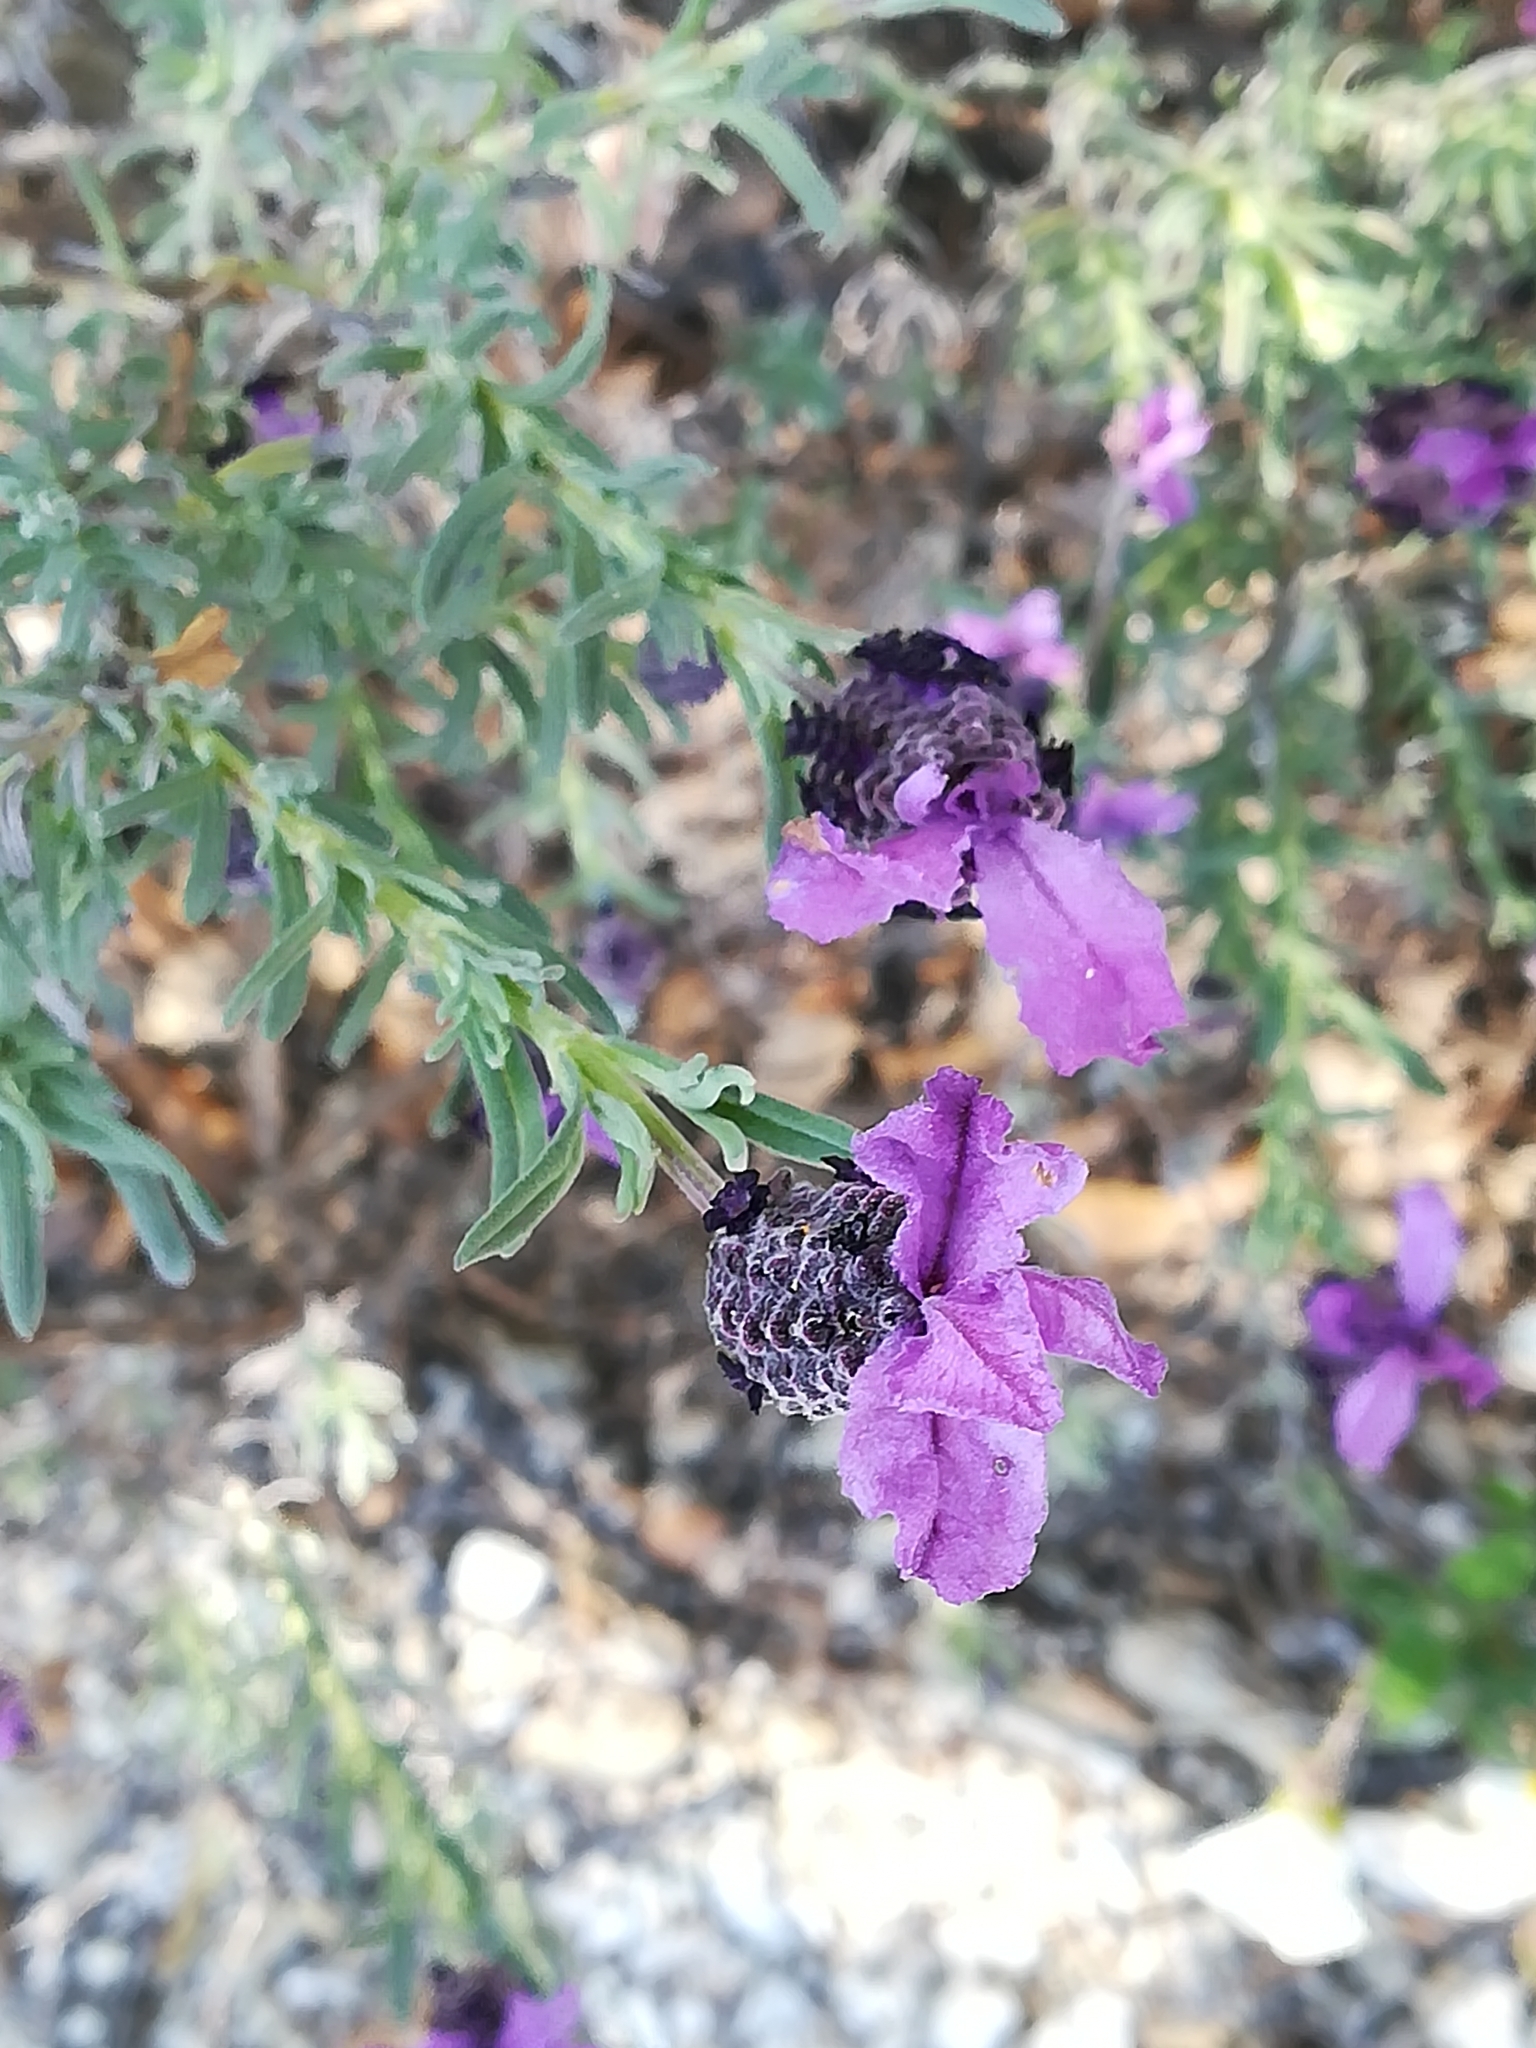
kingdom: Plantae
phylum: Tracheophyta
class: Magnoliopsida
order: Lamiales
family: Lamiaceae
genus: Lavandula
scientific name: Lavandula stoechas
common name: French lavender
